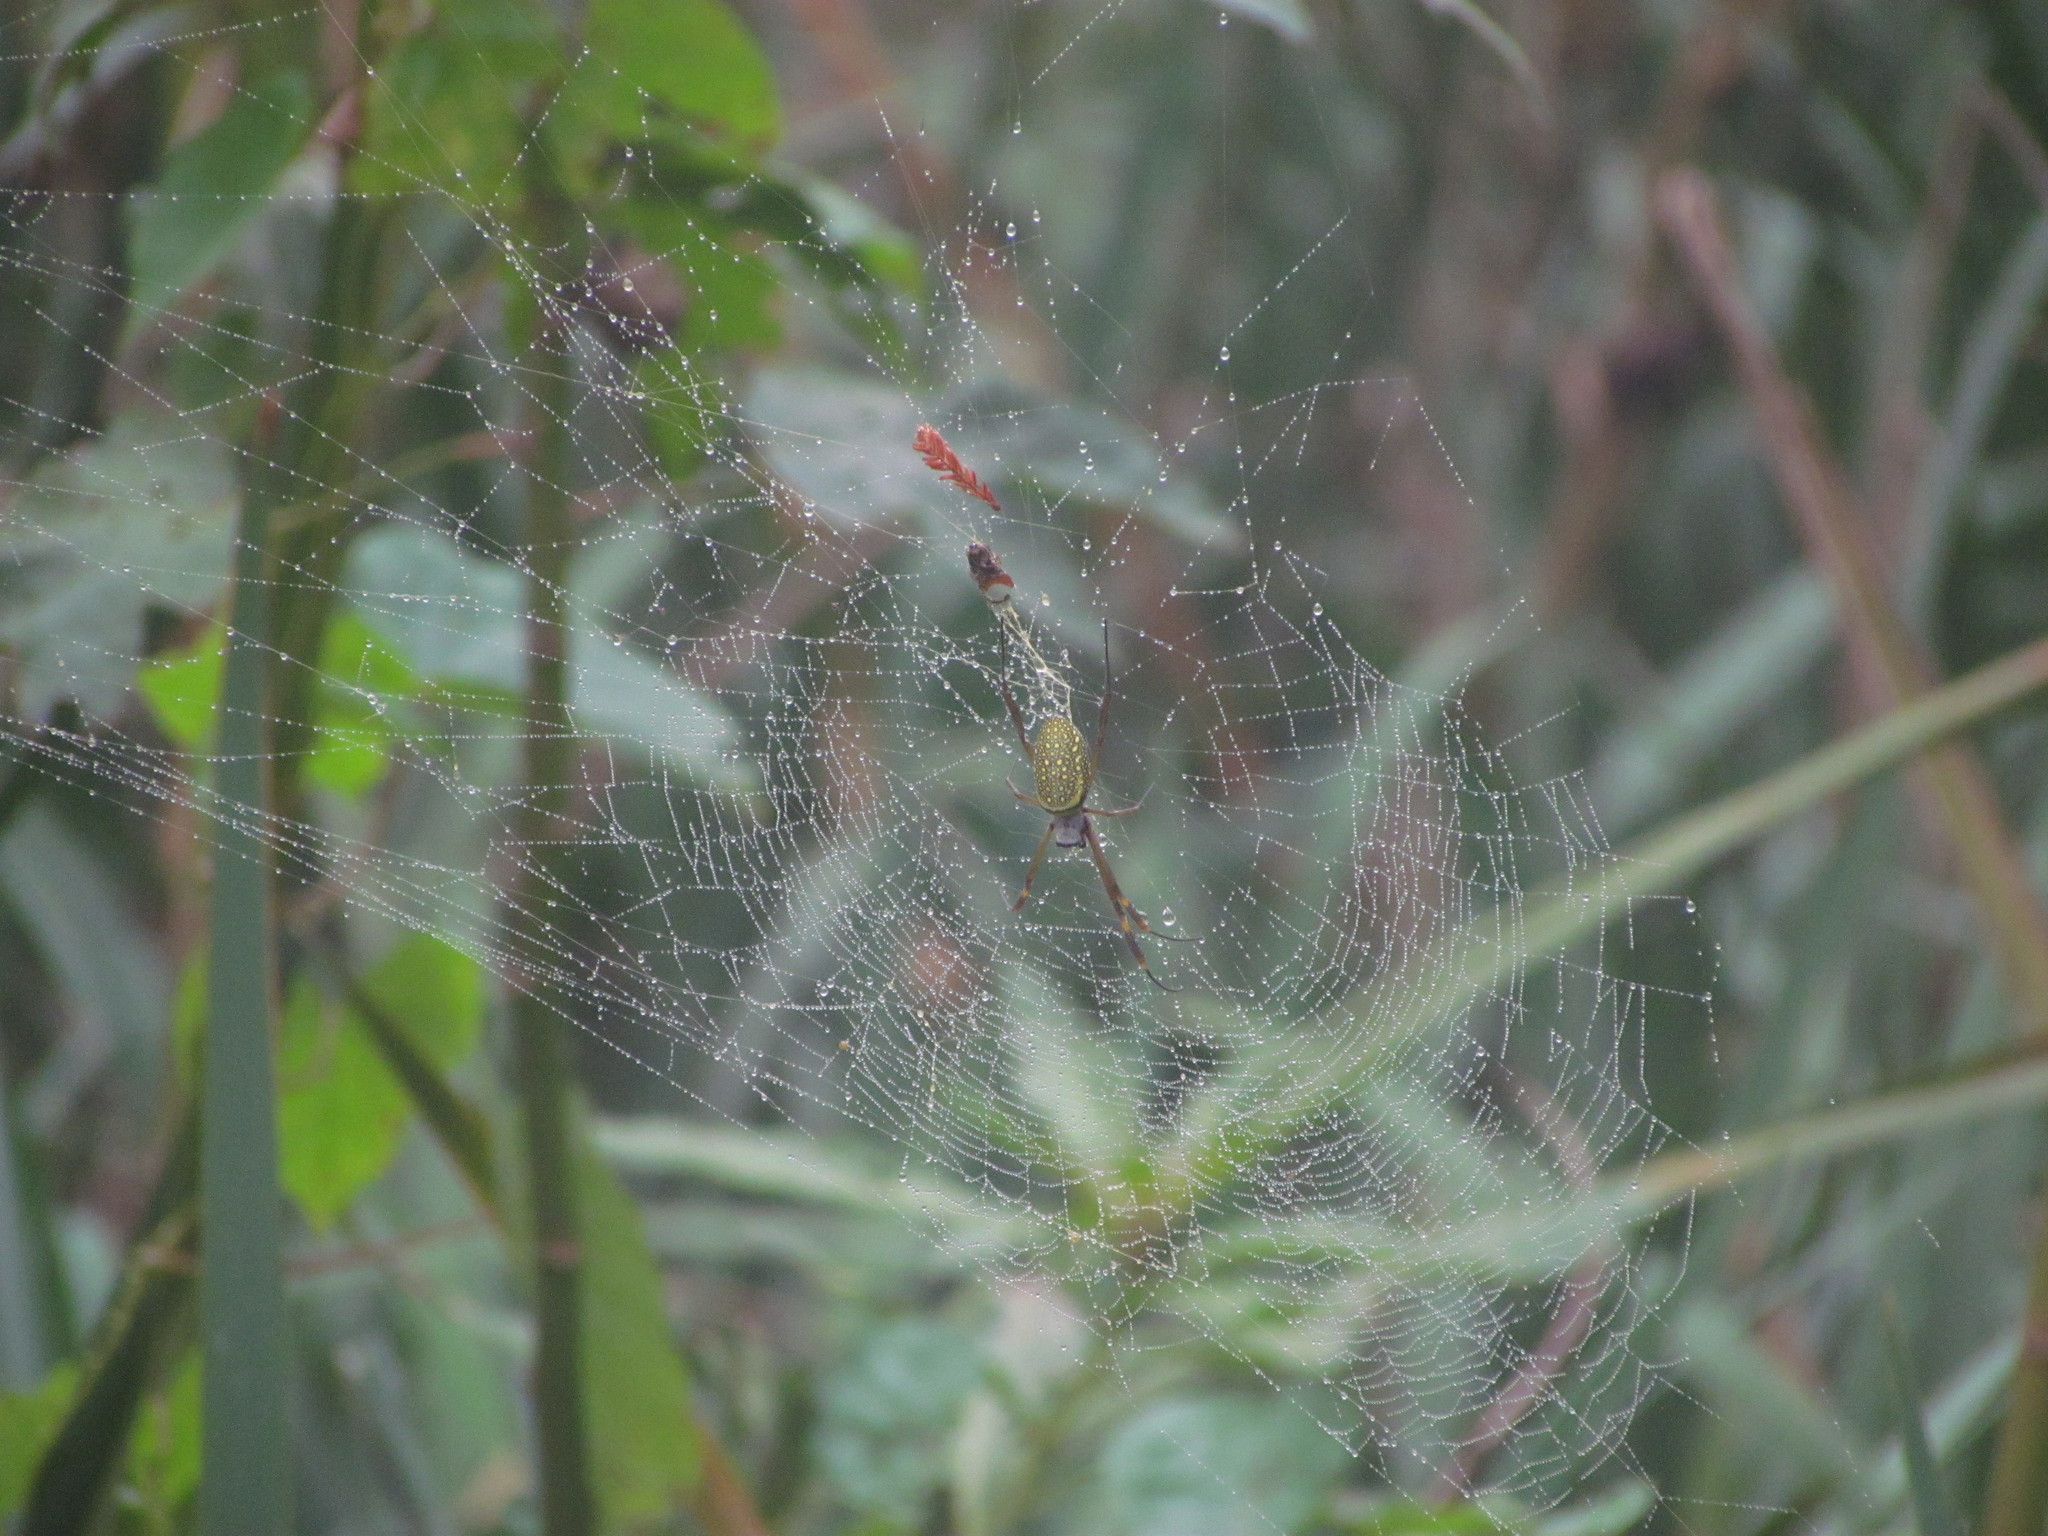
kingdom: Animalia
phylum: Arthropoda
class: Arachnida
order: Araneae
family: Araneidae
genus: Trichonephila
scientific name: Trichonephila clavipes
